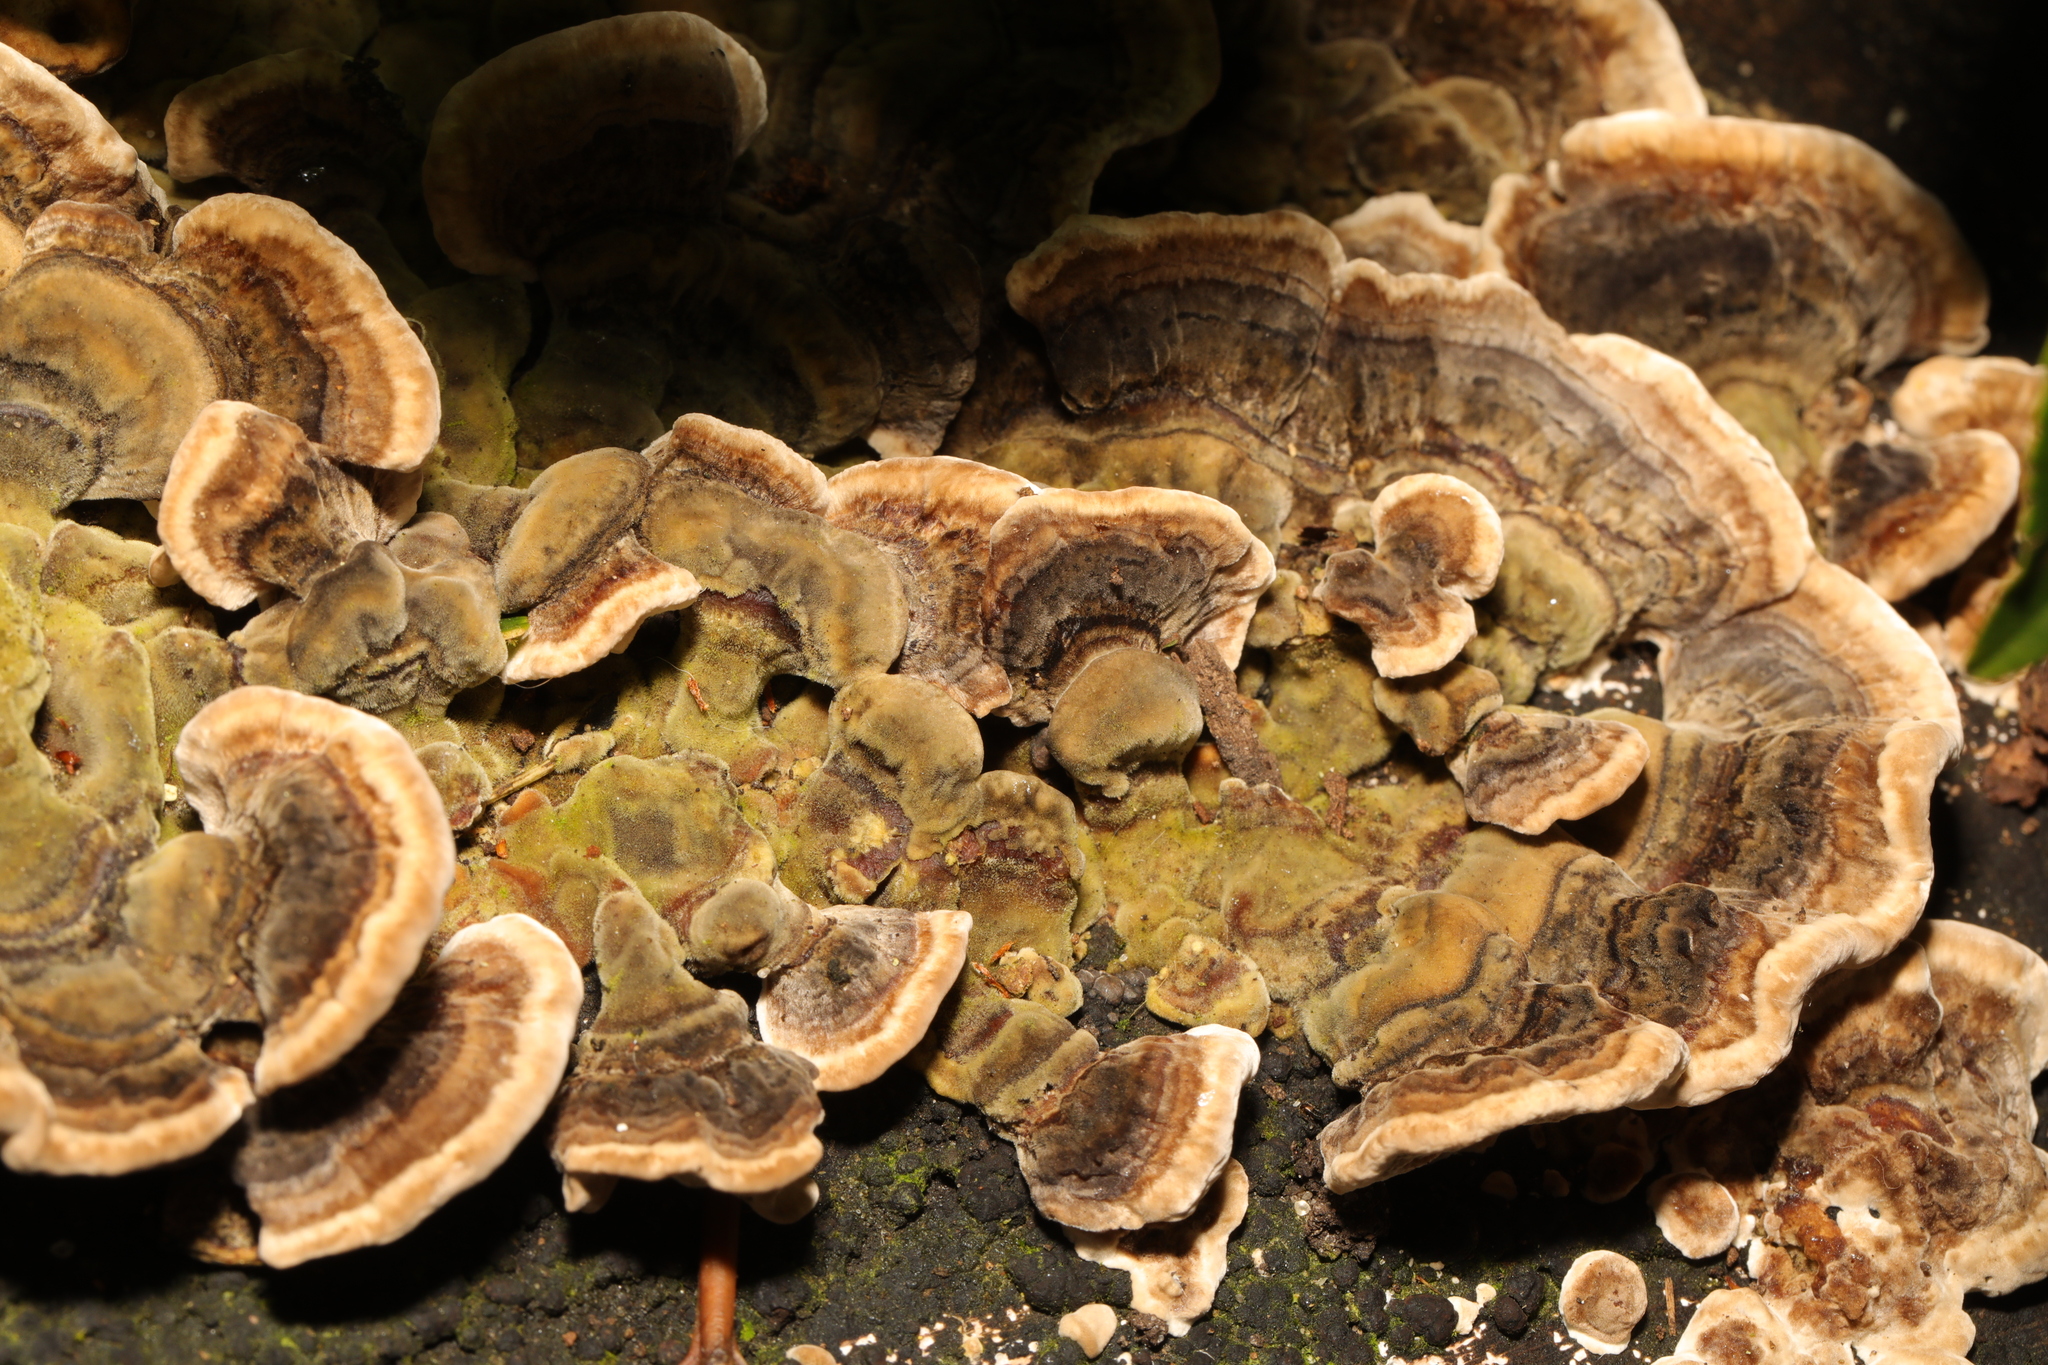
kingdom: Fungi
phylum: Basidiomycota
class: Agaricomycetes
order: Polyporales
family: Polyporaceae
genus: Trametes
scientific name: Trametes versicolor
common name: Turkeytail
